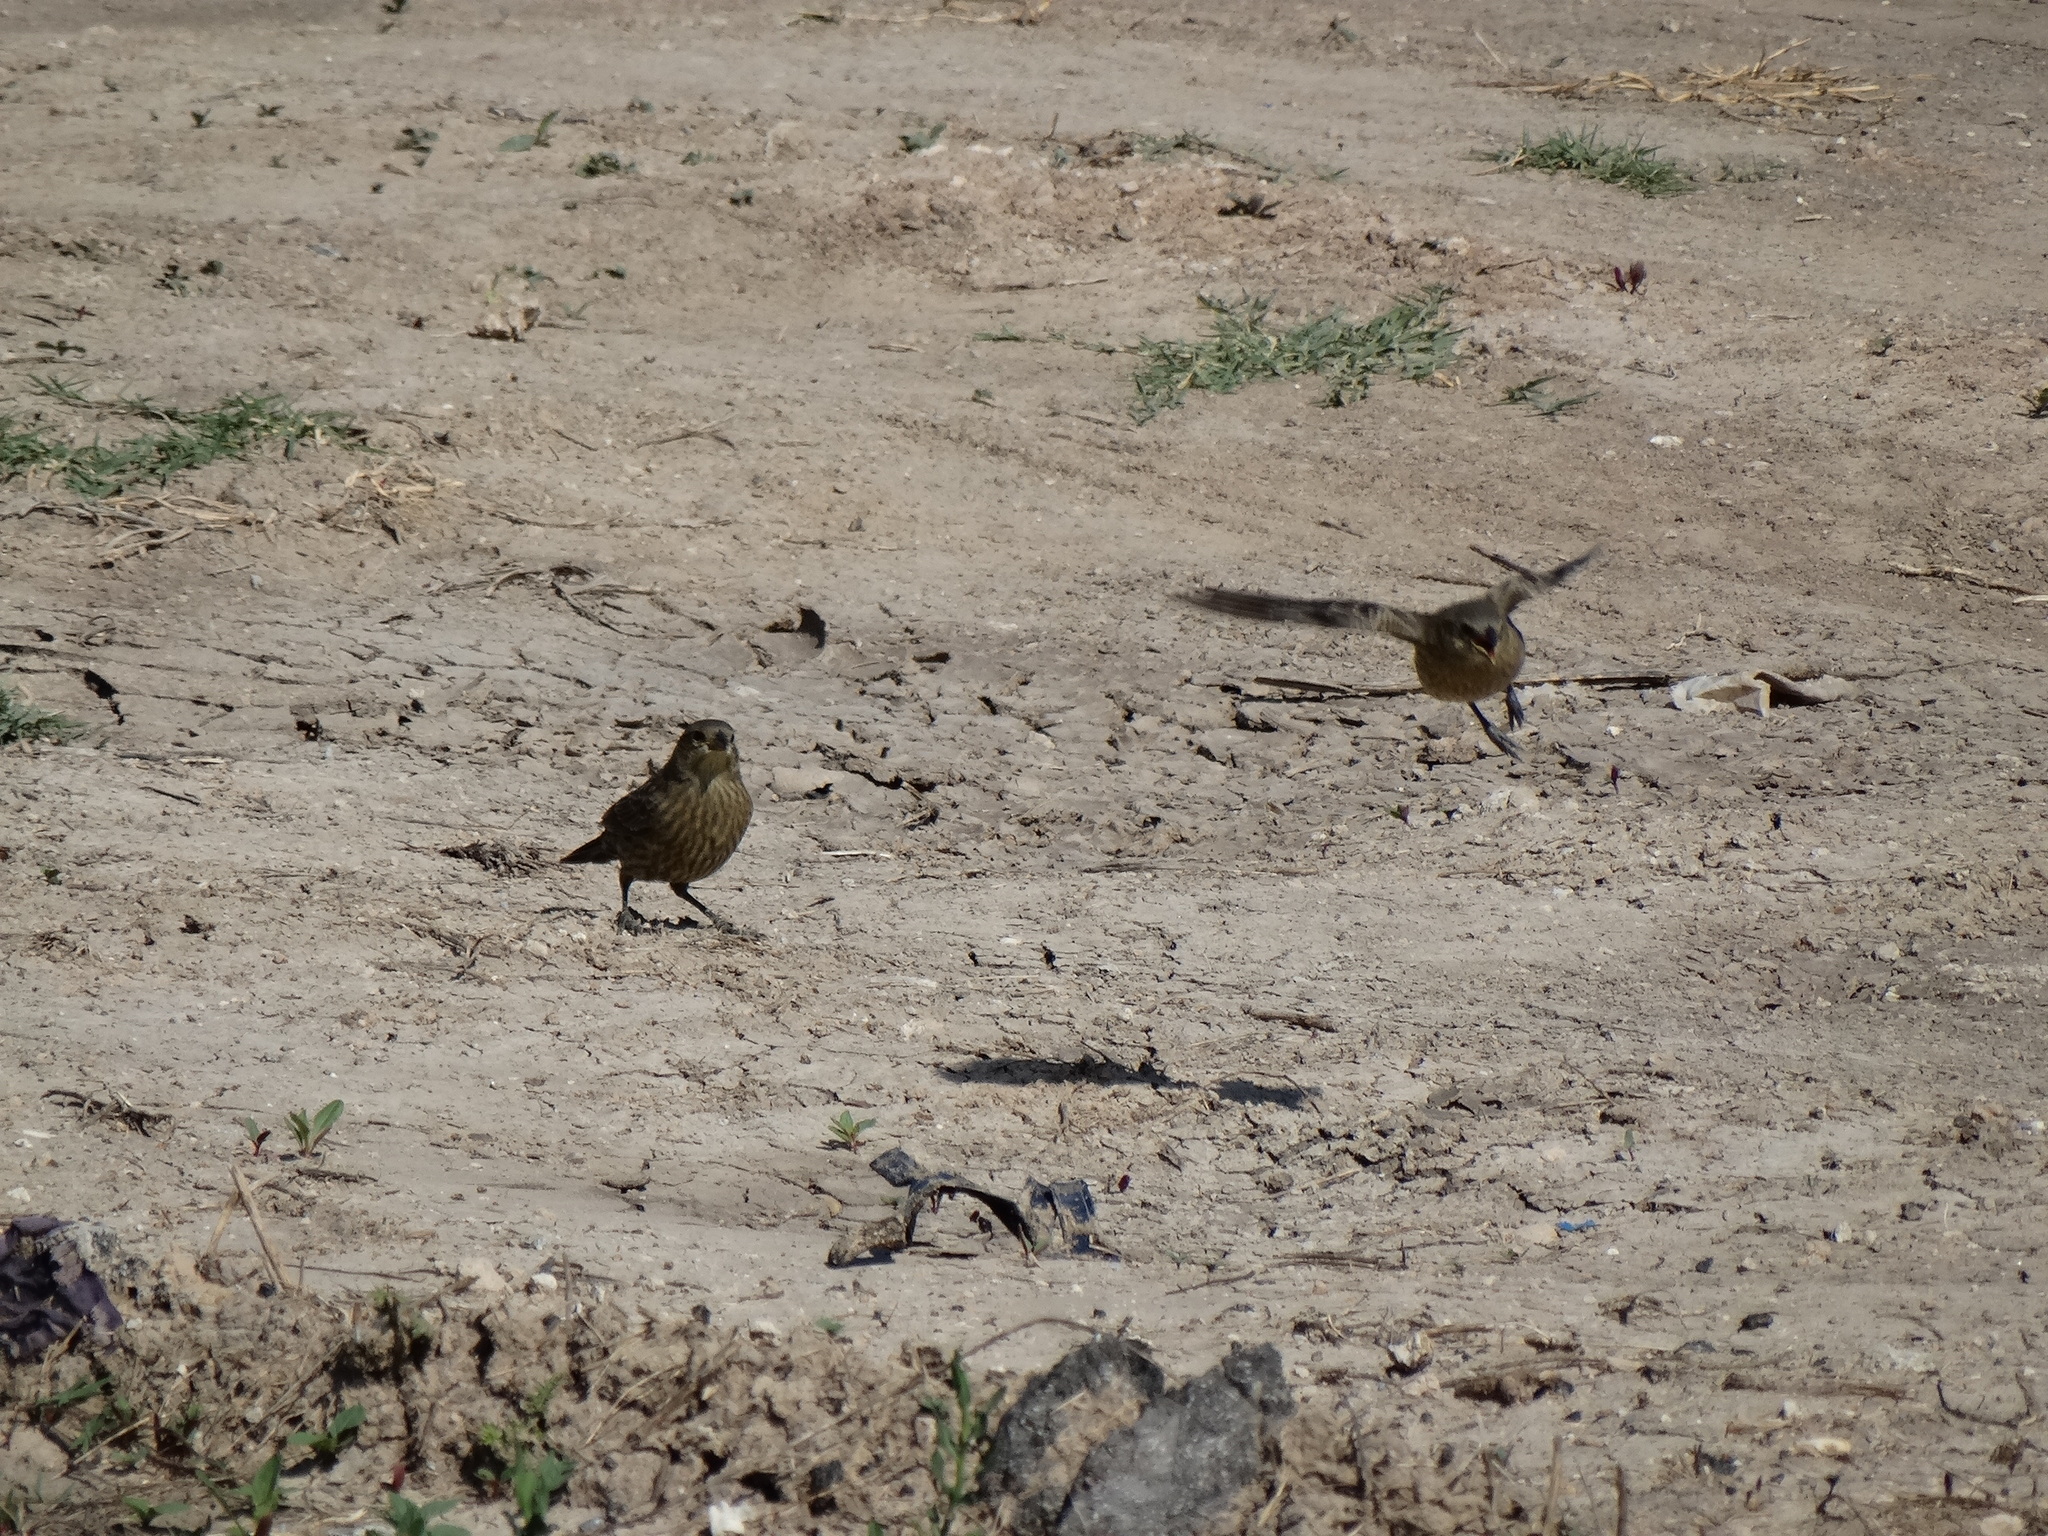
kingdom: Animalia
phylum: Chordata
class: Aves
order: Passeriformes
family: Icteridae
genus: Molothrus
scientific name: Molothrus bonariensis
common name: Shiny cowbird
